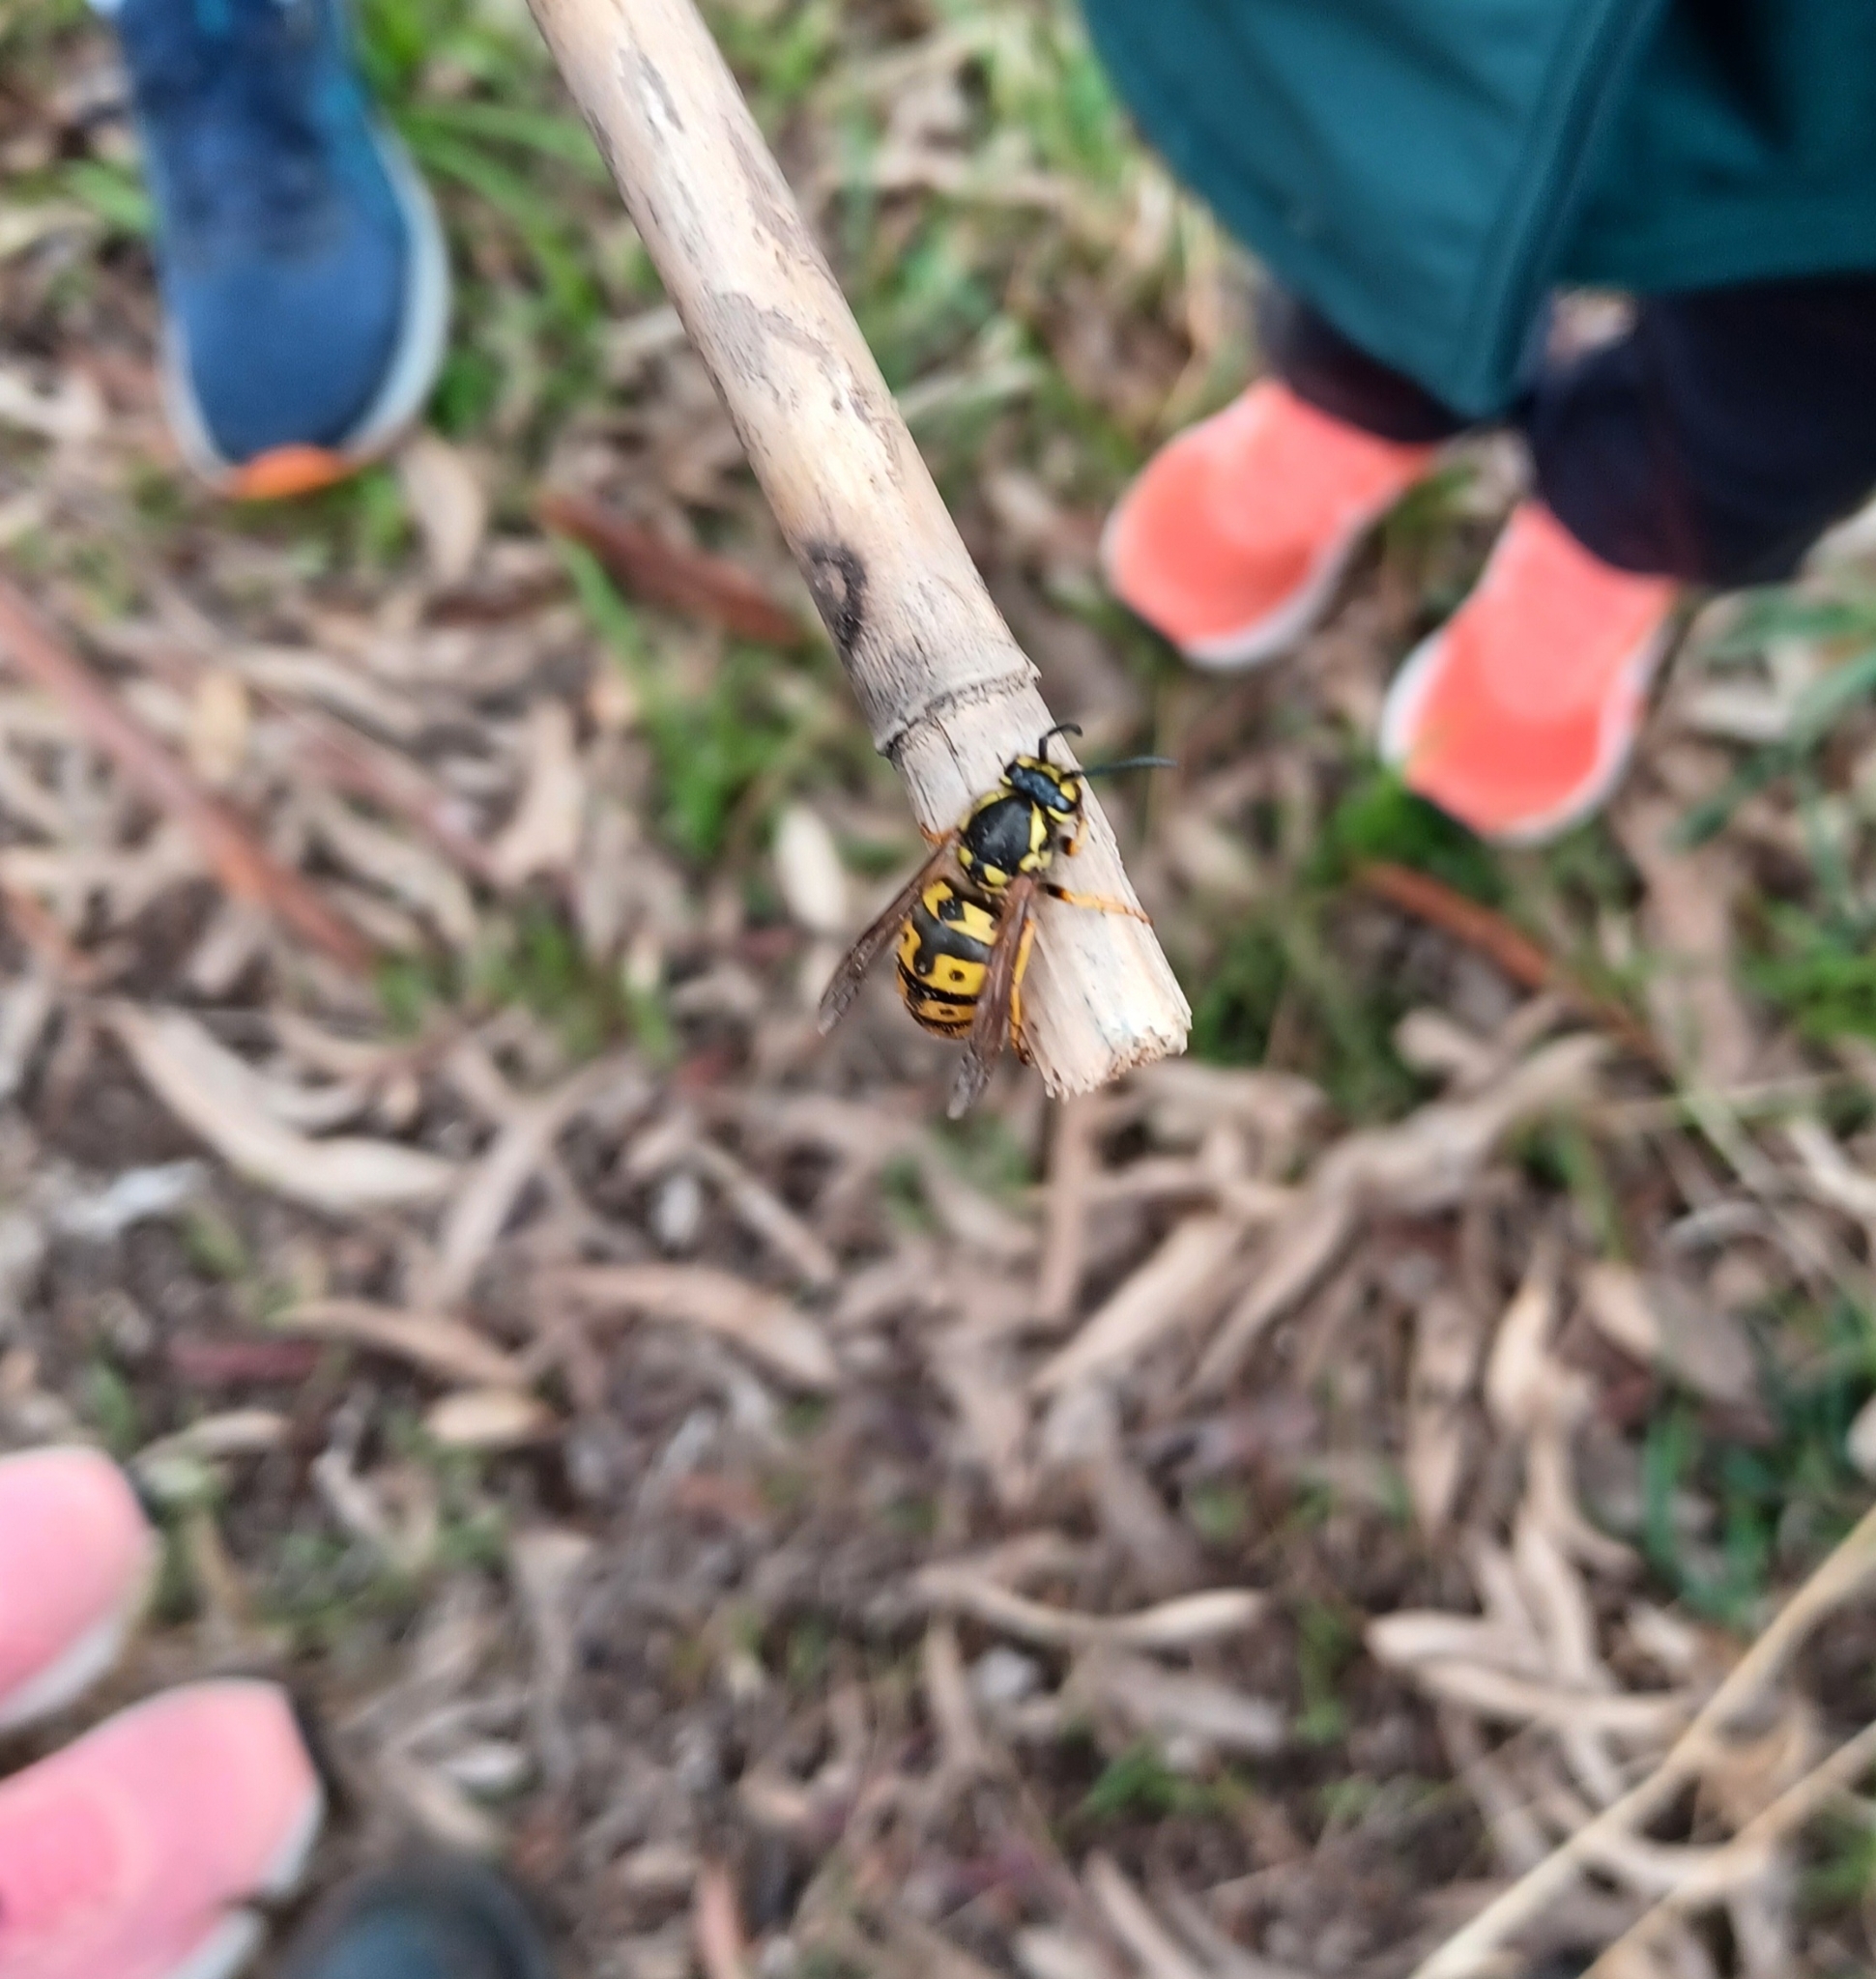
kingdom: Animalia
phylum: Arthropoda
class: Insecta
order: Hymenoptera
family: Vespidae
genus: Vespula
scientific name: Vespula germanica
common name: German wasp
